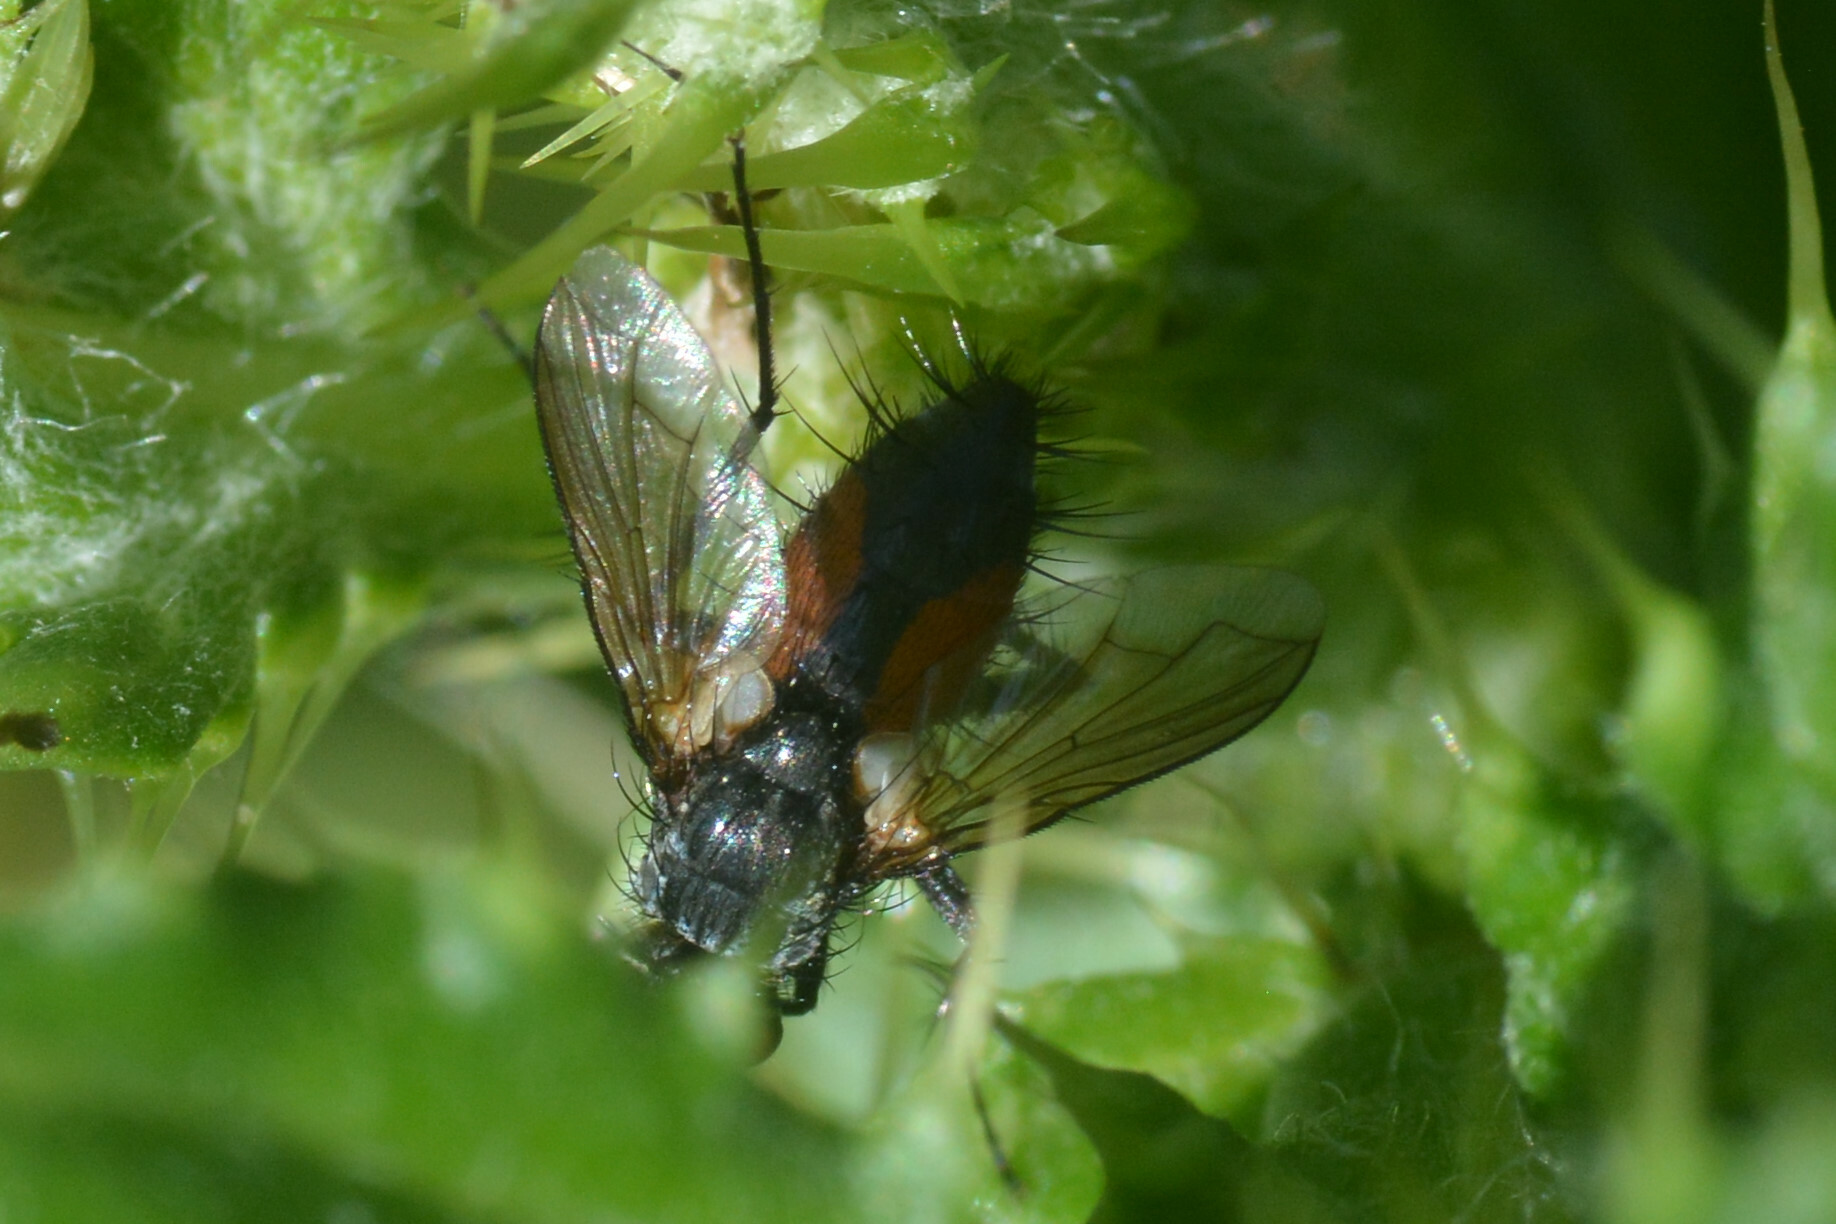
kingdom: Animalia
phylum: Arthropoda
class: Insecta
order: Diptera
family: Tachinidae
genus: Eriothrix
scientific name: Eriothrix rufomaculatus
